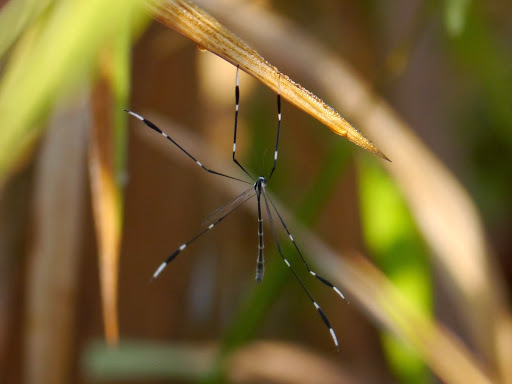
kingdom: Animalia
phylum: Arthropoda
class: Insecta
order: Diptera
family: Ptychopteridae
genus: Bittacomorpha
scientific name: Bittacomorpha clavipes
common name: Eastern phantom crane fly
